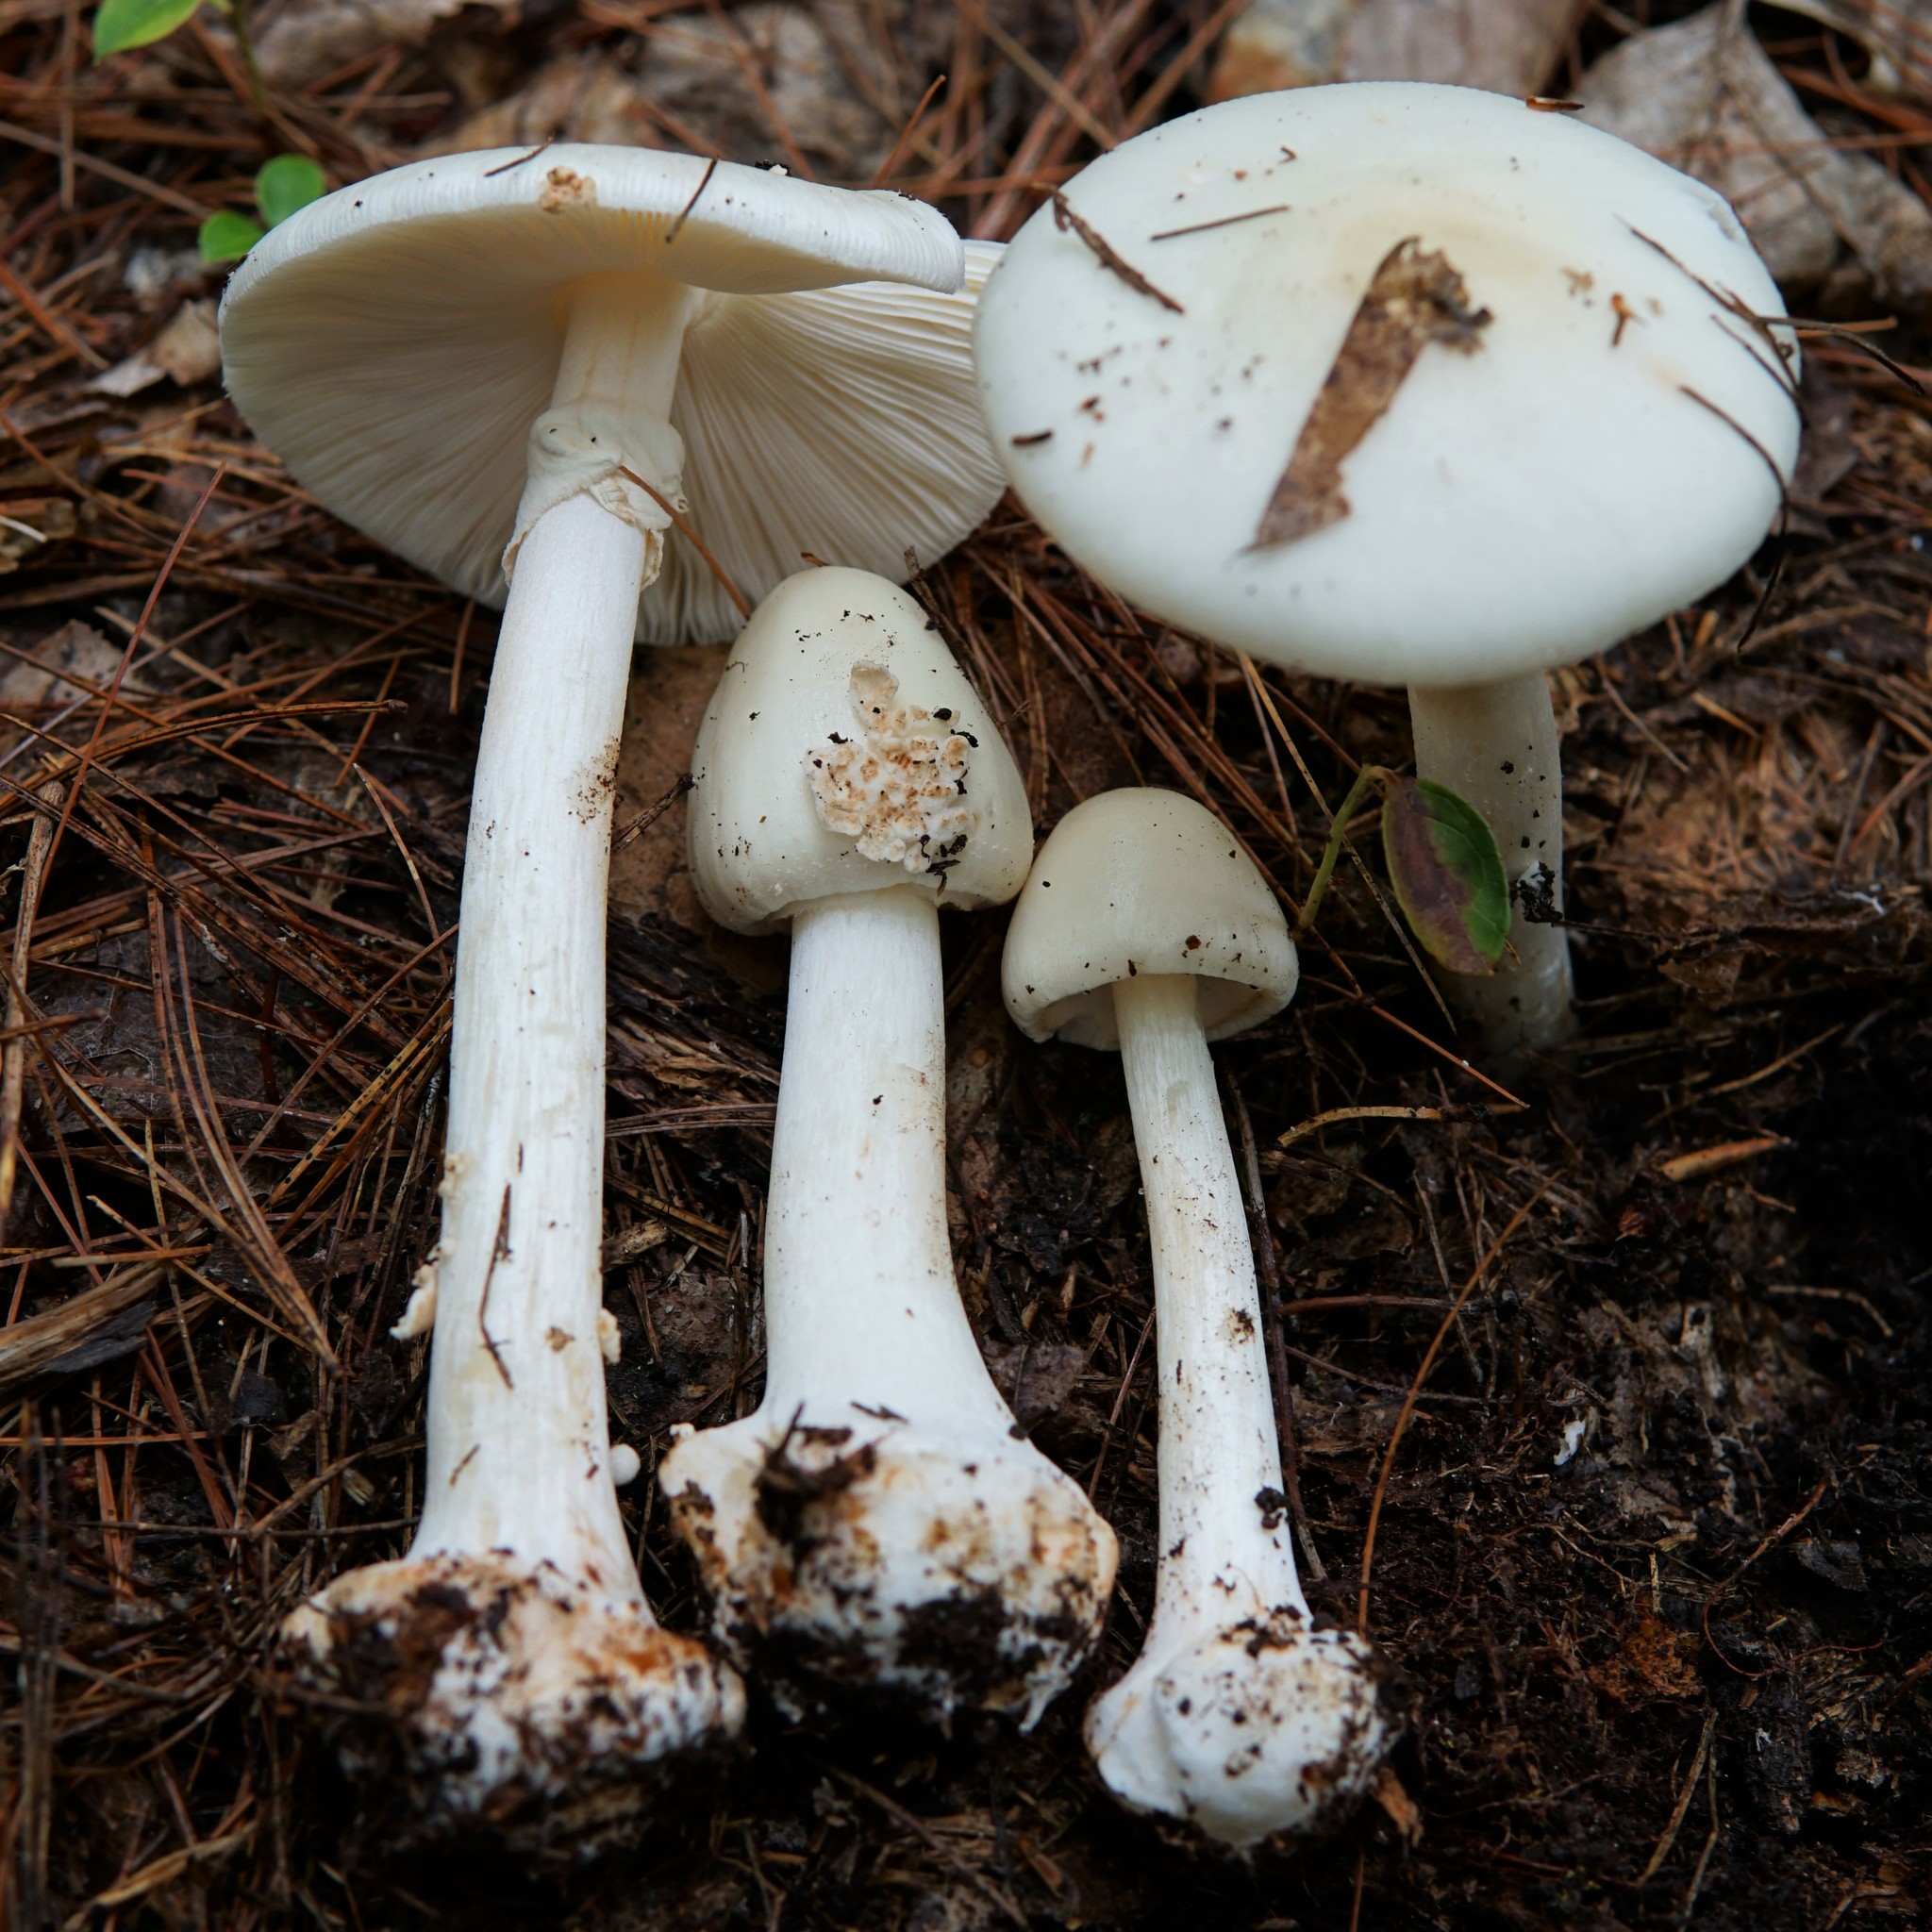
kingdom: Fungi
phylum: Basidiomycota
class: Agaricomycetes
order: Agaricales
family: Amanitaceae
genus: Amanita
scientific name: Amanita aestivalis
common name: White american star-footed amanita
